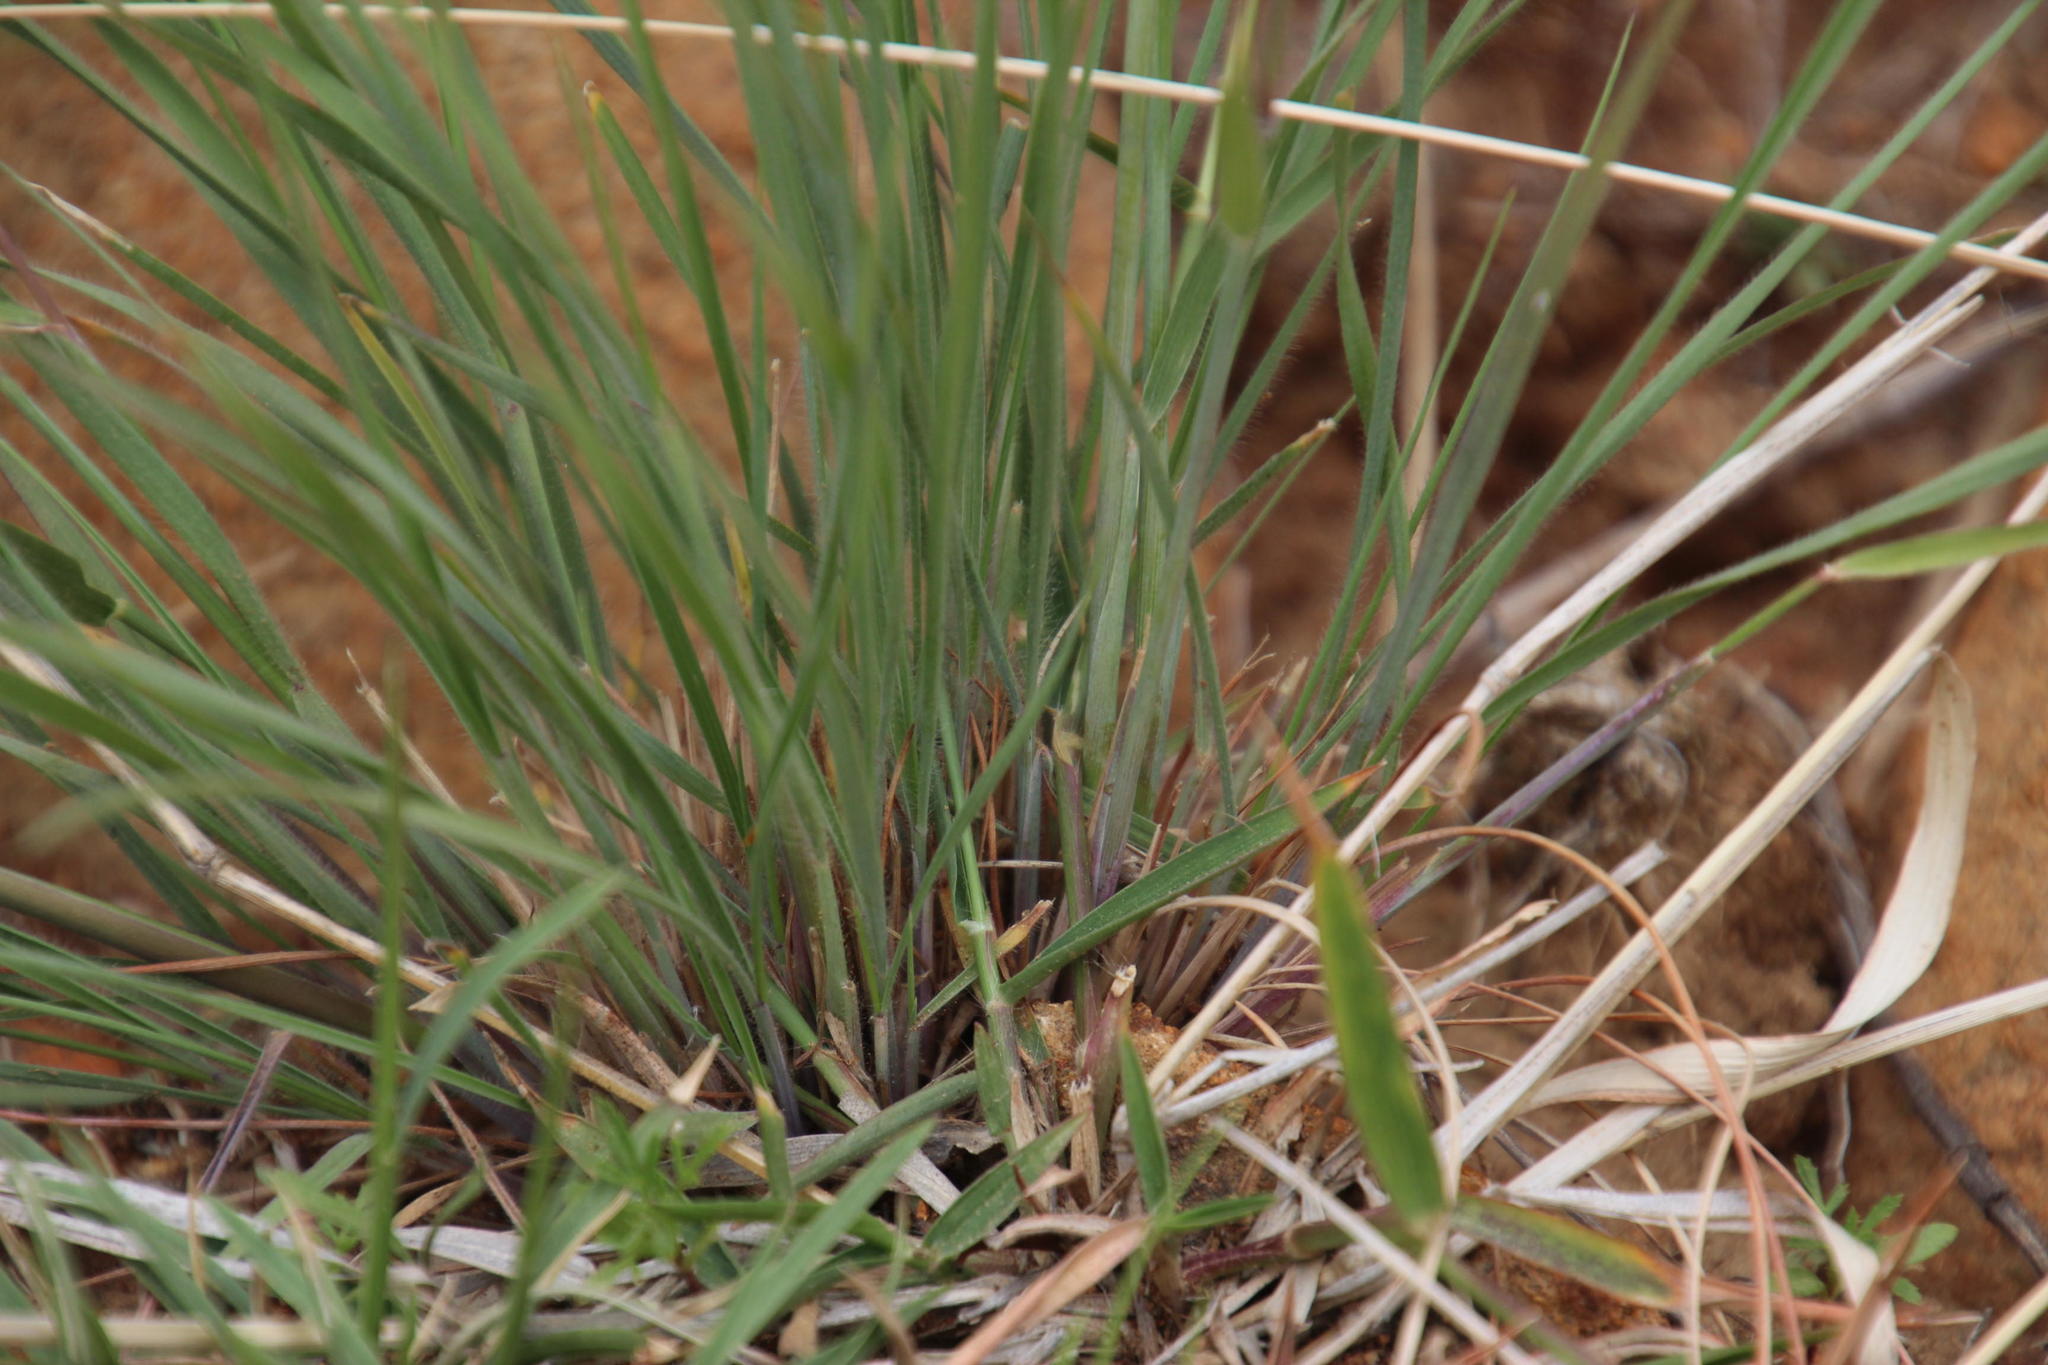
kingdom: Plantae
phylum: Tracheophyta
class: Liliopsida
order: Poales
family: Poaceae
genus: Melinis
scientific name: Melinis repens
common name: Rose natal grass
